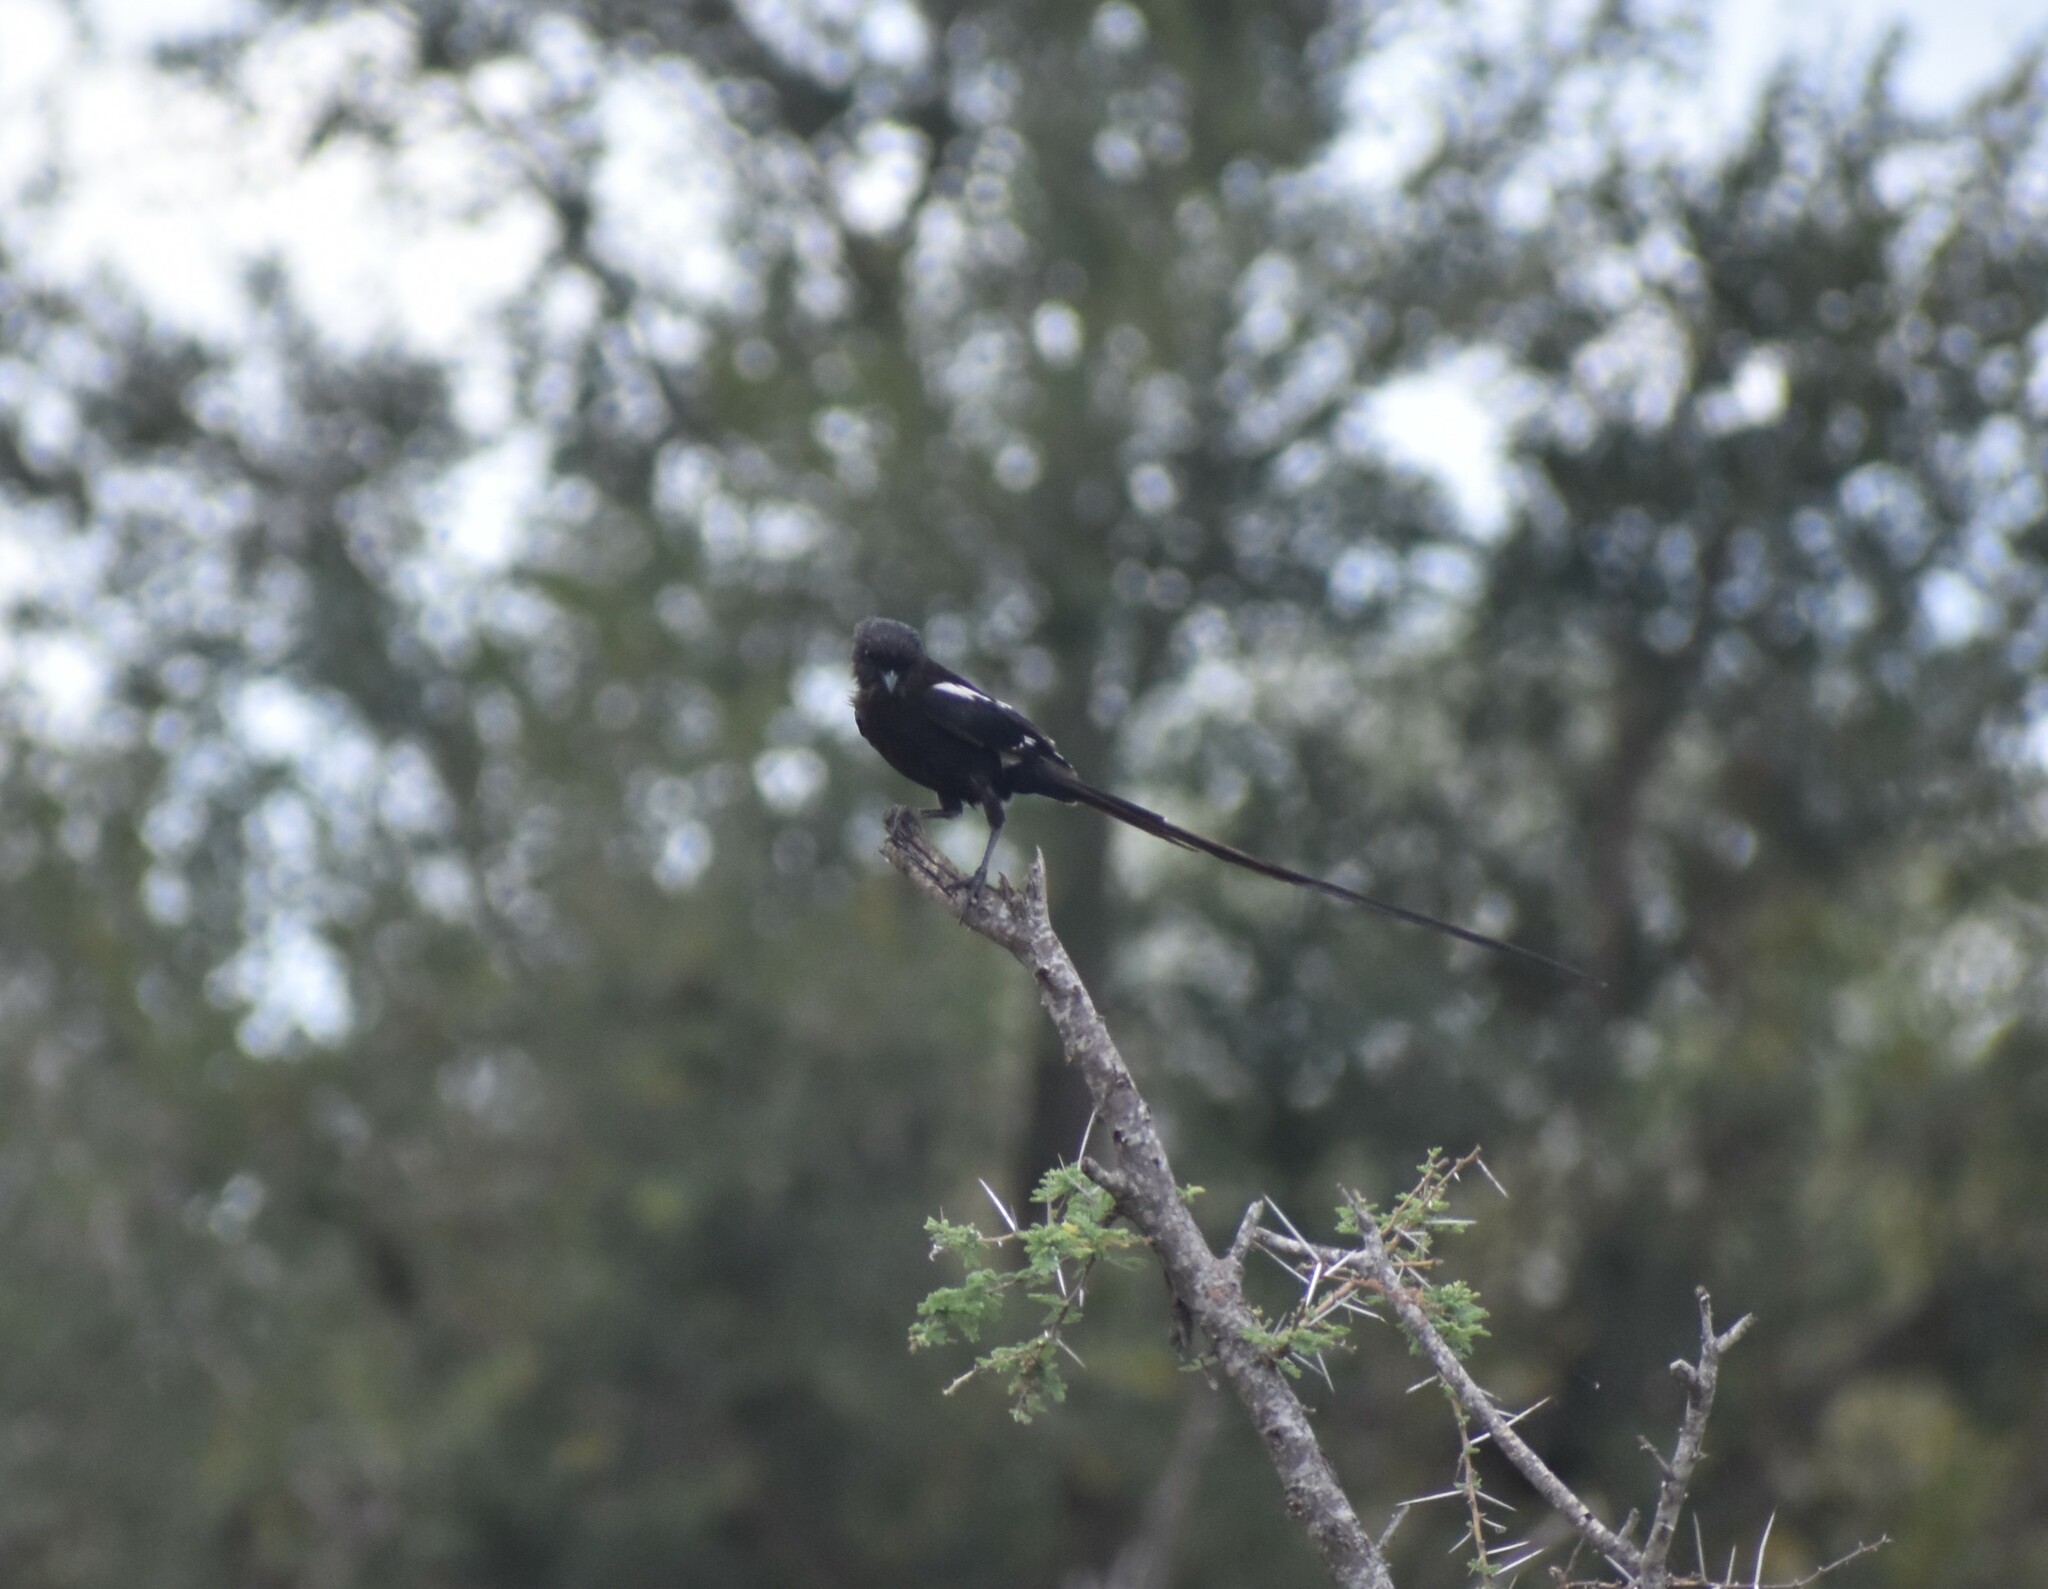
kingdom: Animalia
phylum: Chordata
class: Aves
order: Passeriformes
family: Laniidae
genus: Urolestes
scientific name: Urolestes melanoleucus
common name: Magpie shrike
